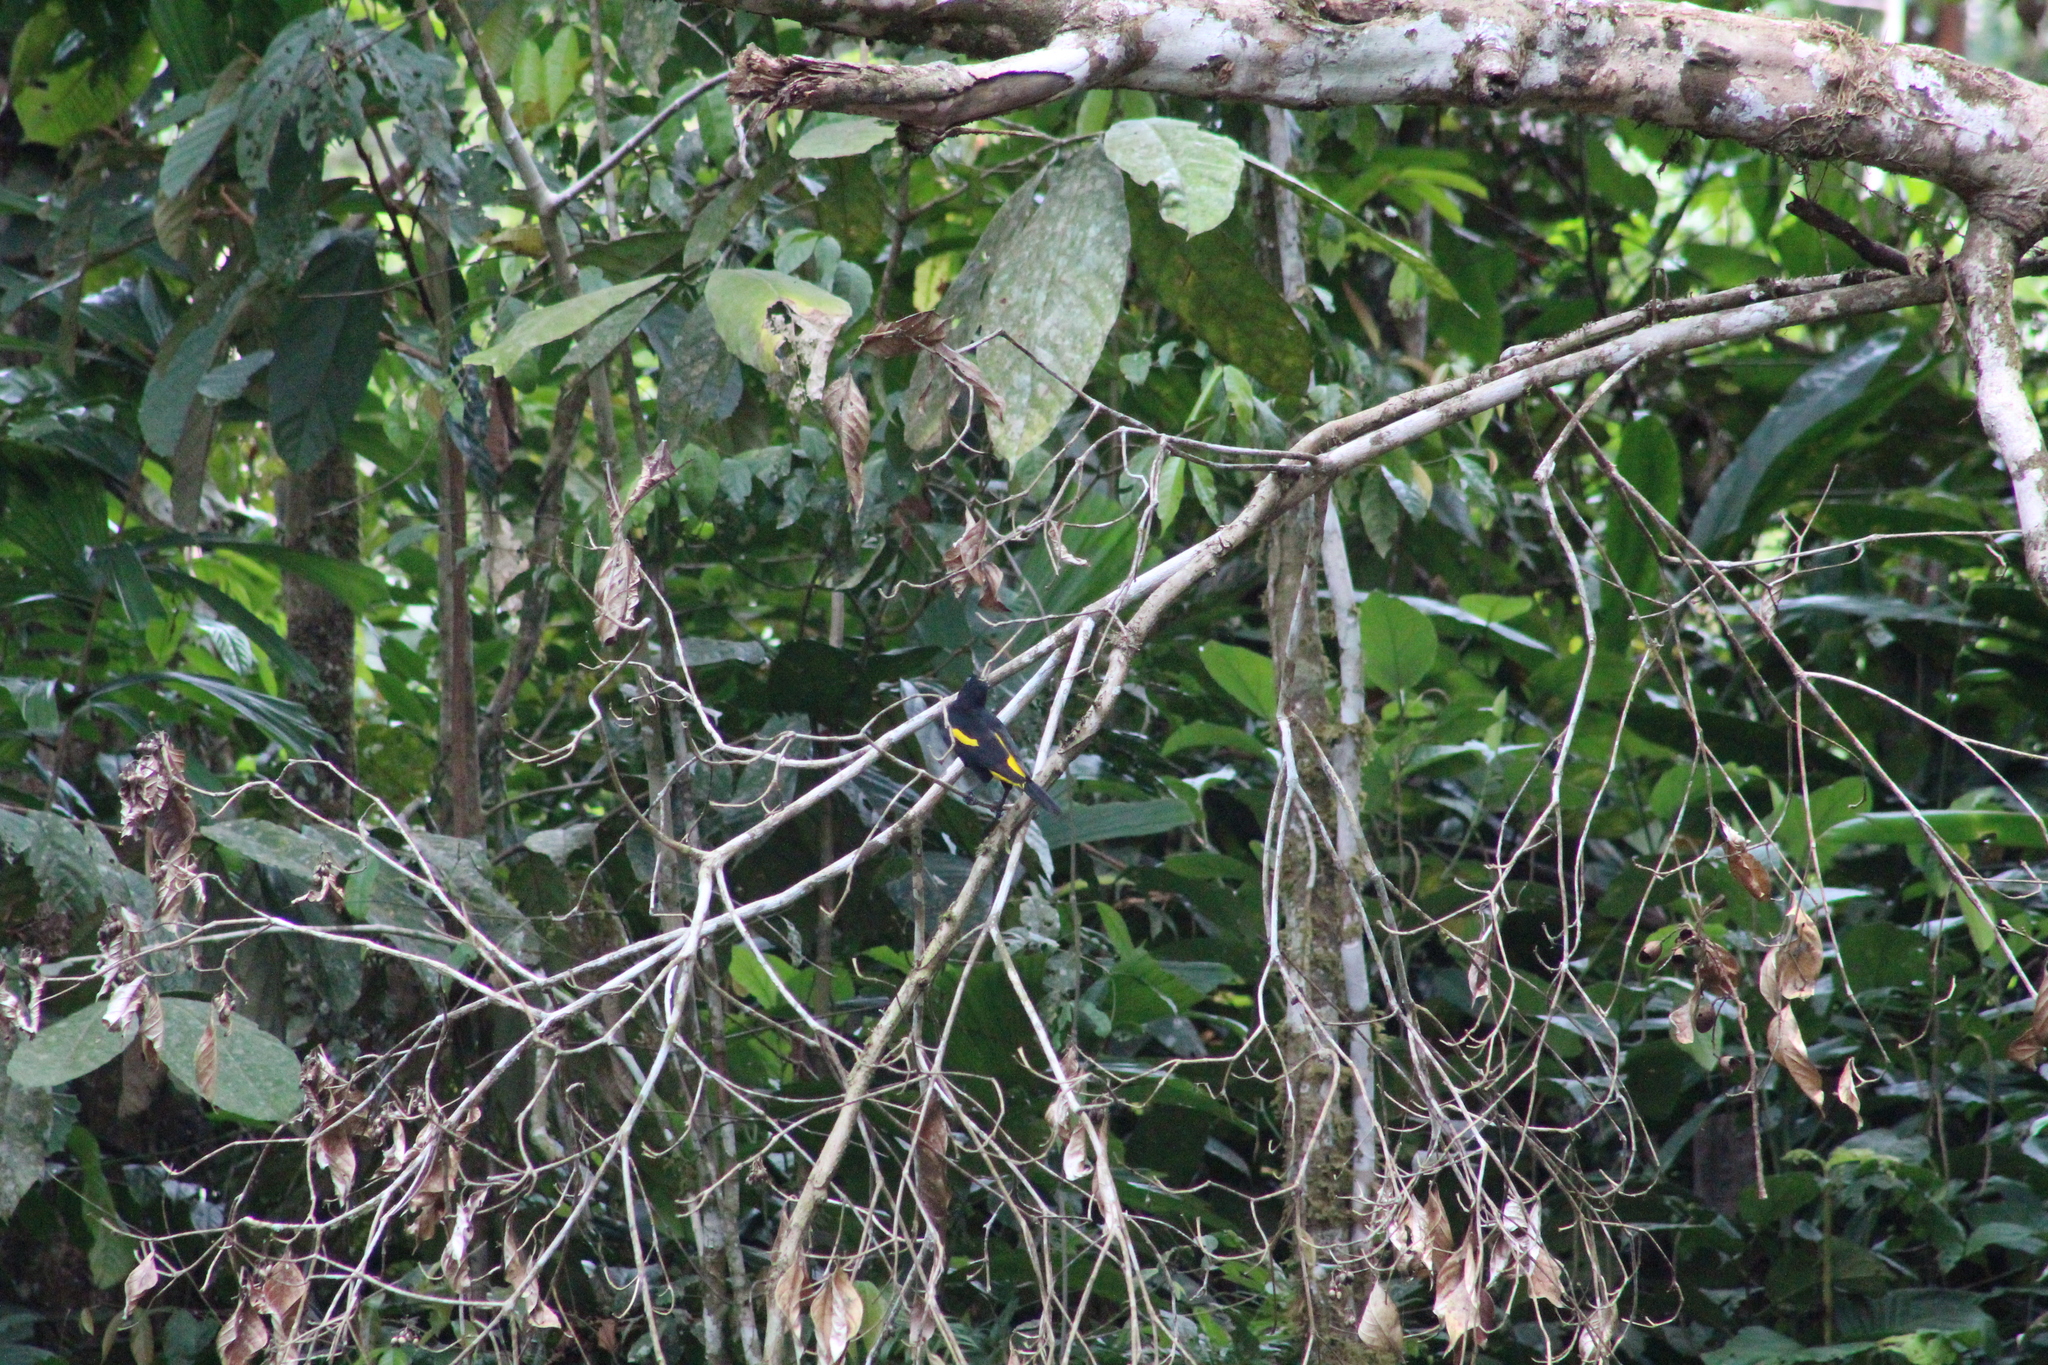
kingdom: Animalia
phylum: Chordata
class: Aves
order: Passeriformes
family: Icteridae
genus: Cacicus
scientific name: Cacicus cela
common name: Yellow-rumped cacique
